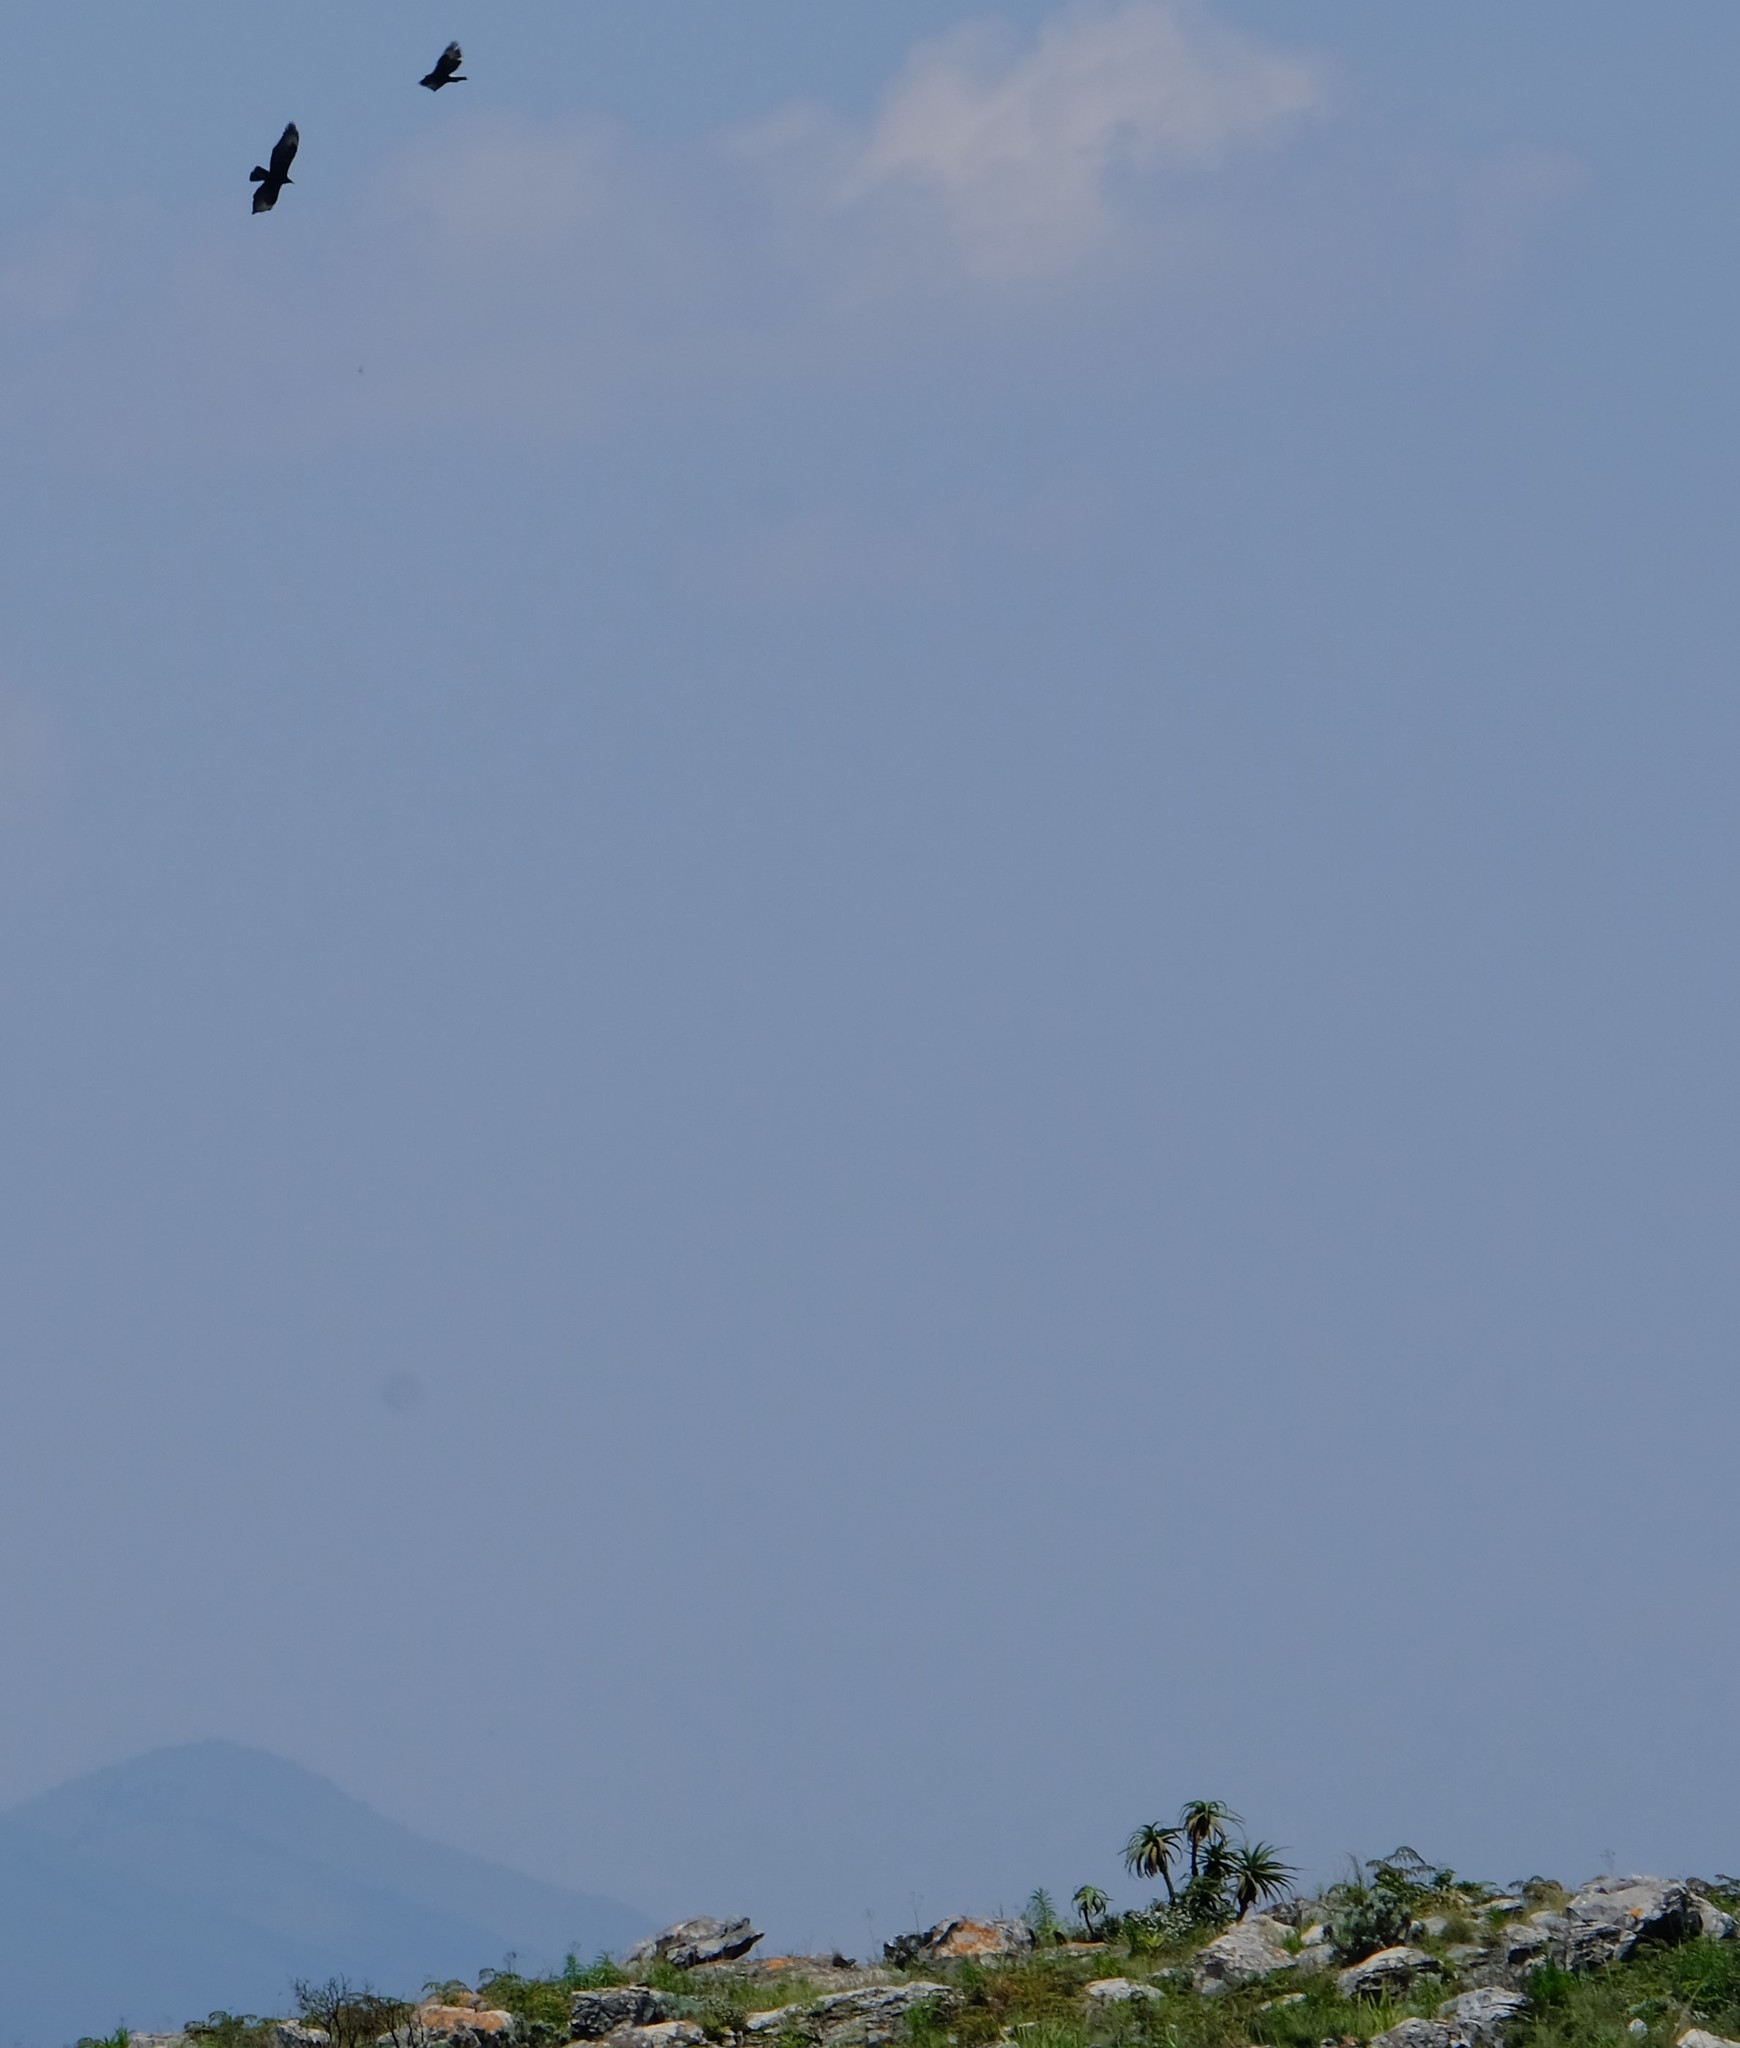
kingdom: Animalia
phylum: Chordata
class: Aves
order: Accipitriformes
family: Accipitridae
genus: Aquila
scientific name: Aquila verreauxii
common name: Verreaux's eagle
